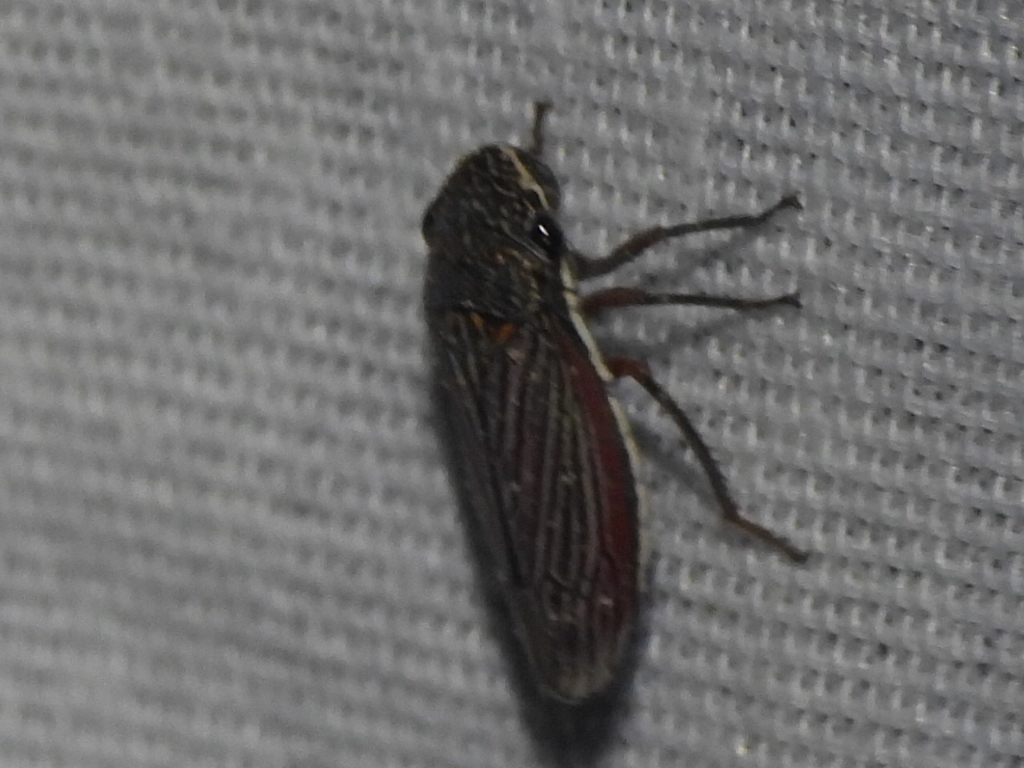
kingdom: Animalia
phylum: Arthropoda
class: Insecta
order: Hemiptera
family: Cicadellidae
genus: Cuerna
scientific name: Cuerna costalis
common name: Lateral-lined sharpshooter
